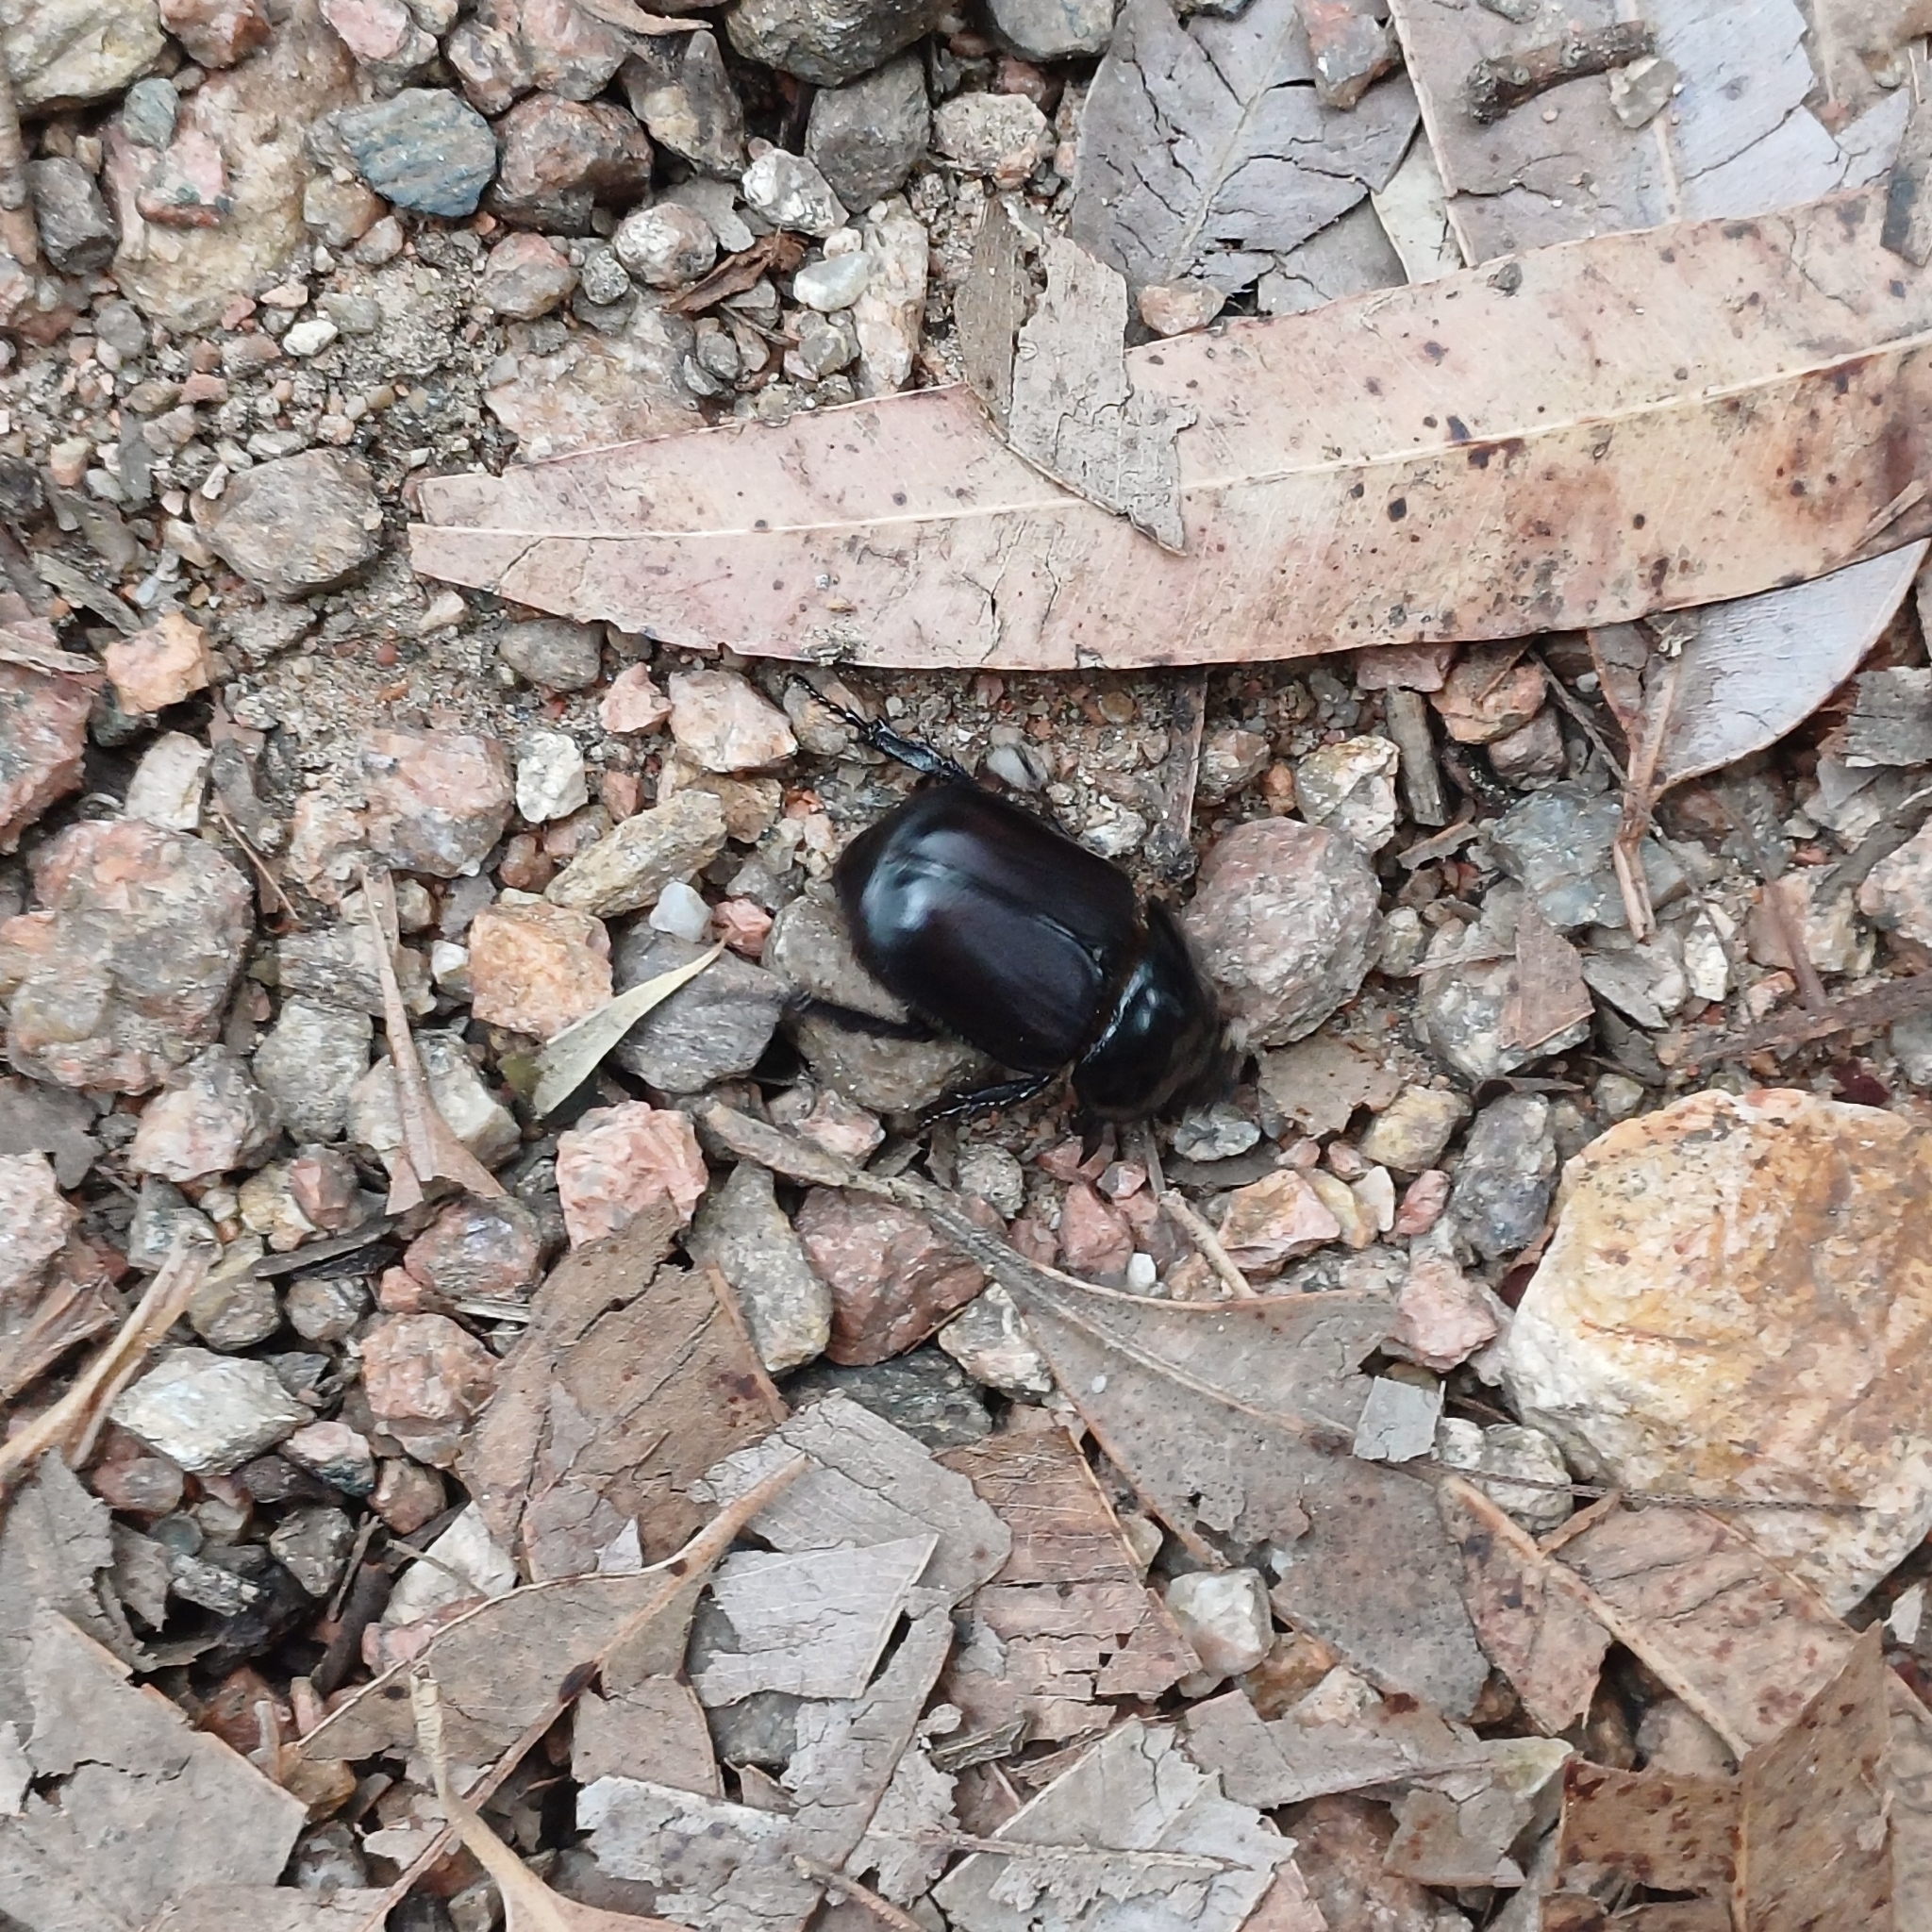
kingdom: Animalia
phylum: Arthropoda
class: Insecta
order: Coleoptera
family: Scarabaeidae
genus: Diloboderus
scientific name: Diloboderus abderus
